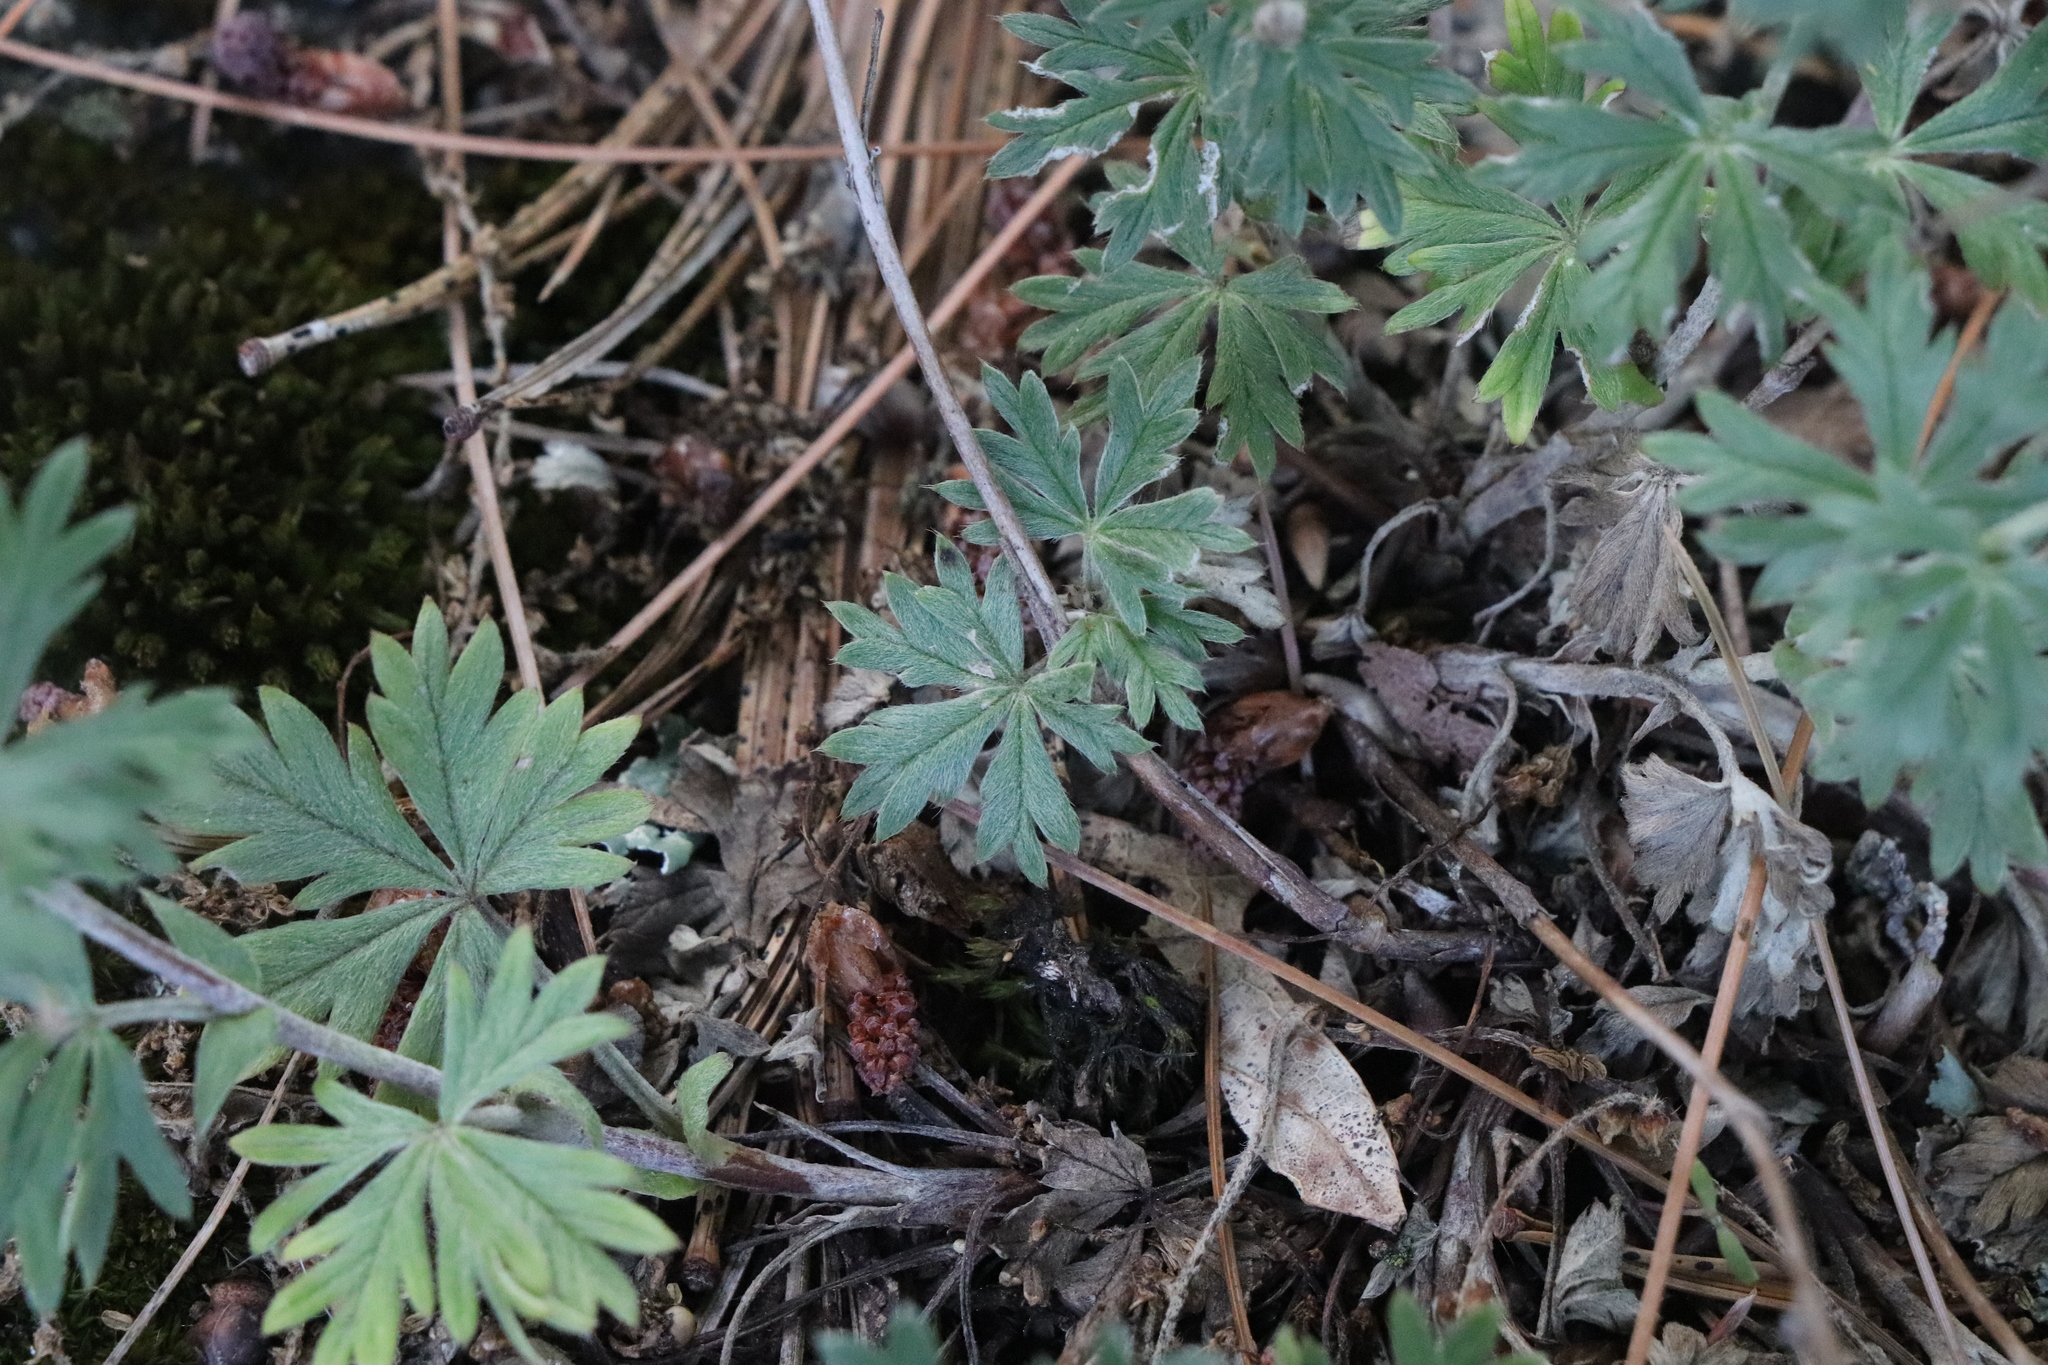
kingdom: Plantae
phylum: Tracheophyta
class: Magnoliopsida
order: Rosales
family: Rosaceae
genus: Potentilla
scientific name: Potentilla argentea
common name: Hoary cinquefoil
